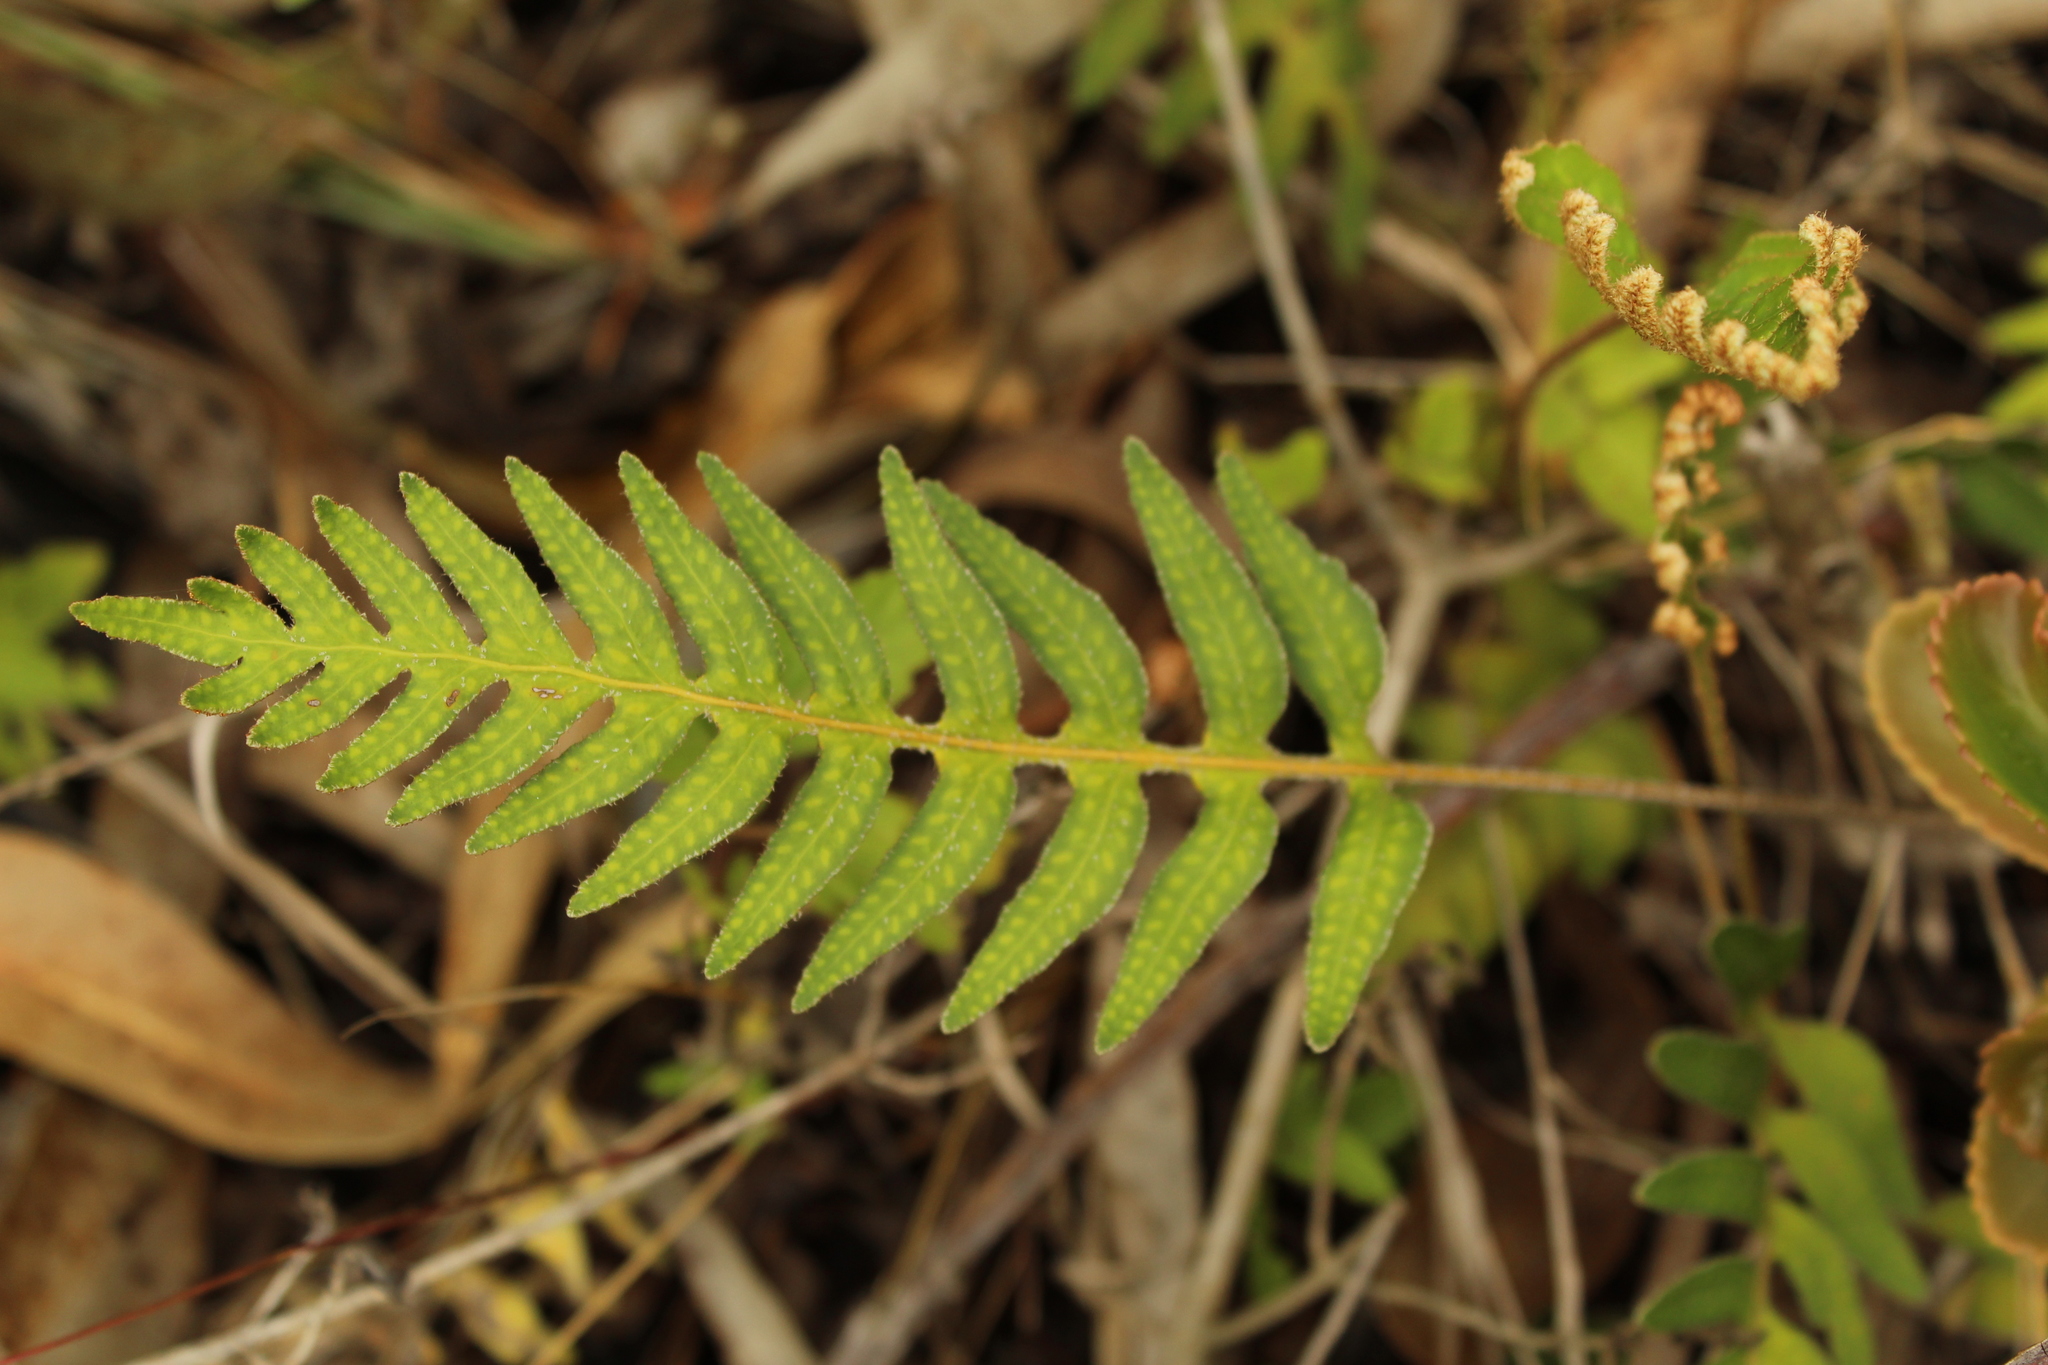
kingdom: Plantae
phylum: Tracheophyta
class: Polypodiopsida
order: Polypodiales
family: Polypodiaceae
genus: Pleopeltis
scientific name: Pleopeltis orientalis
